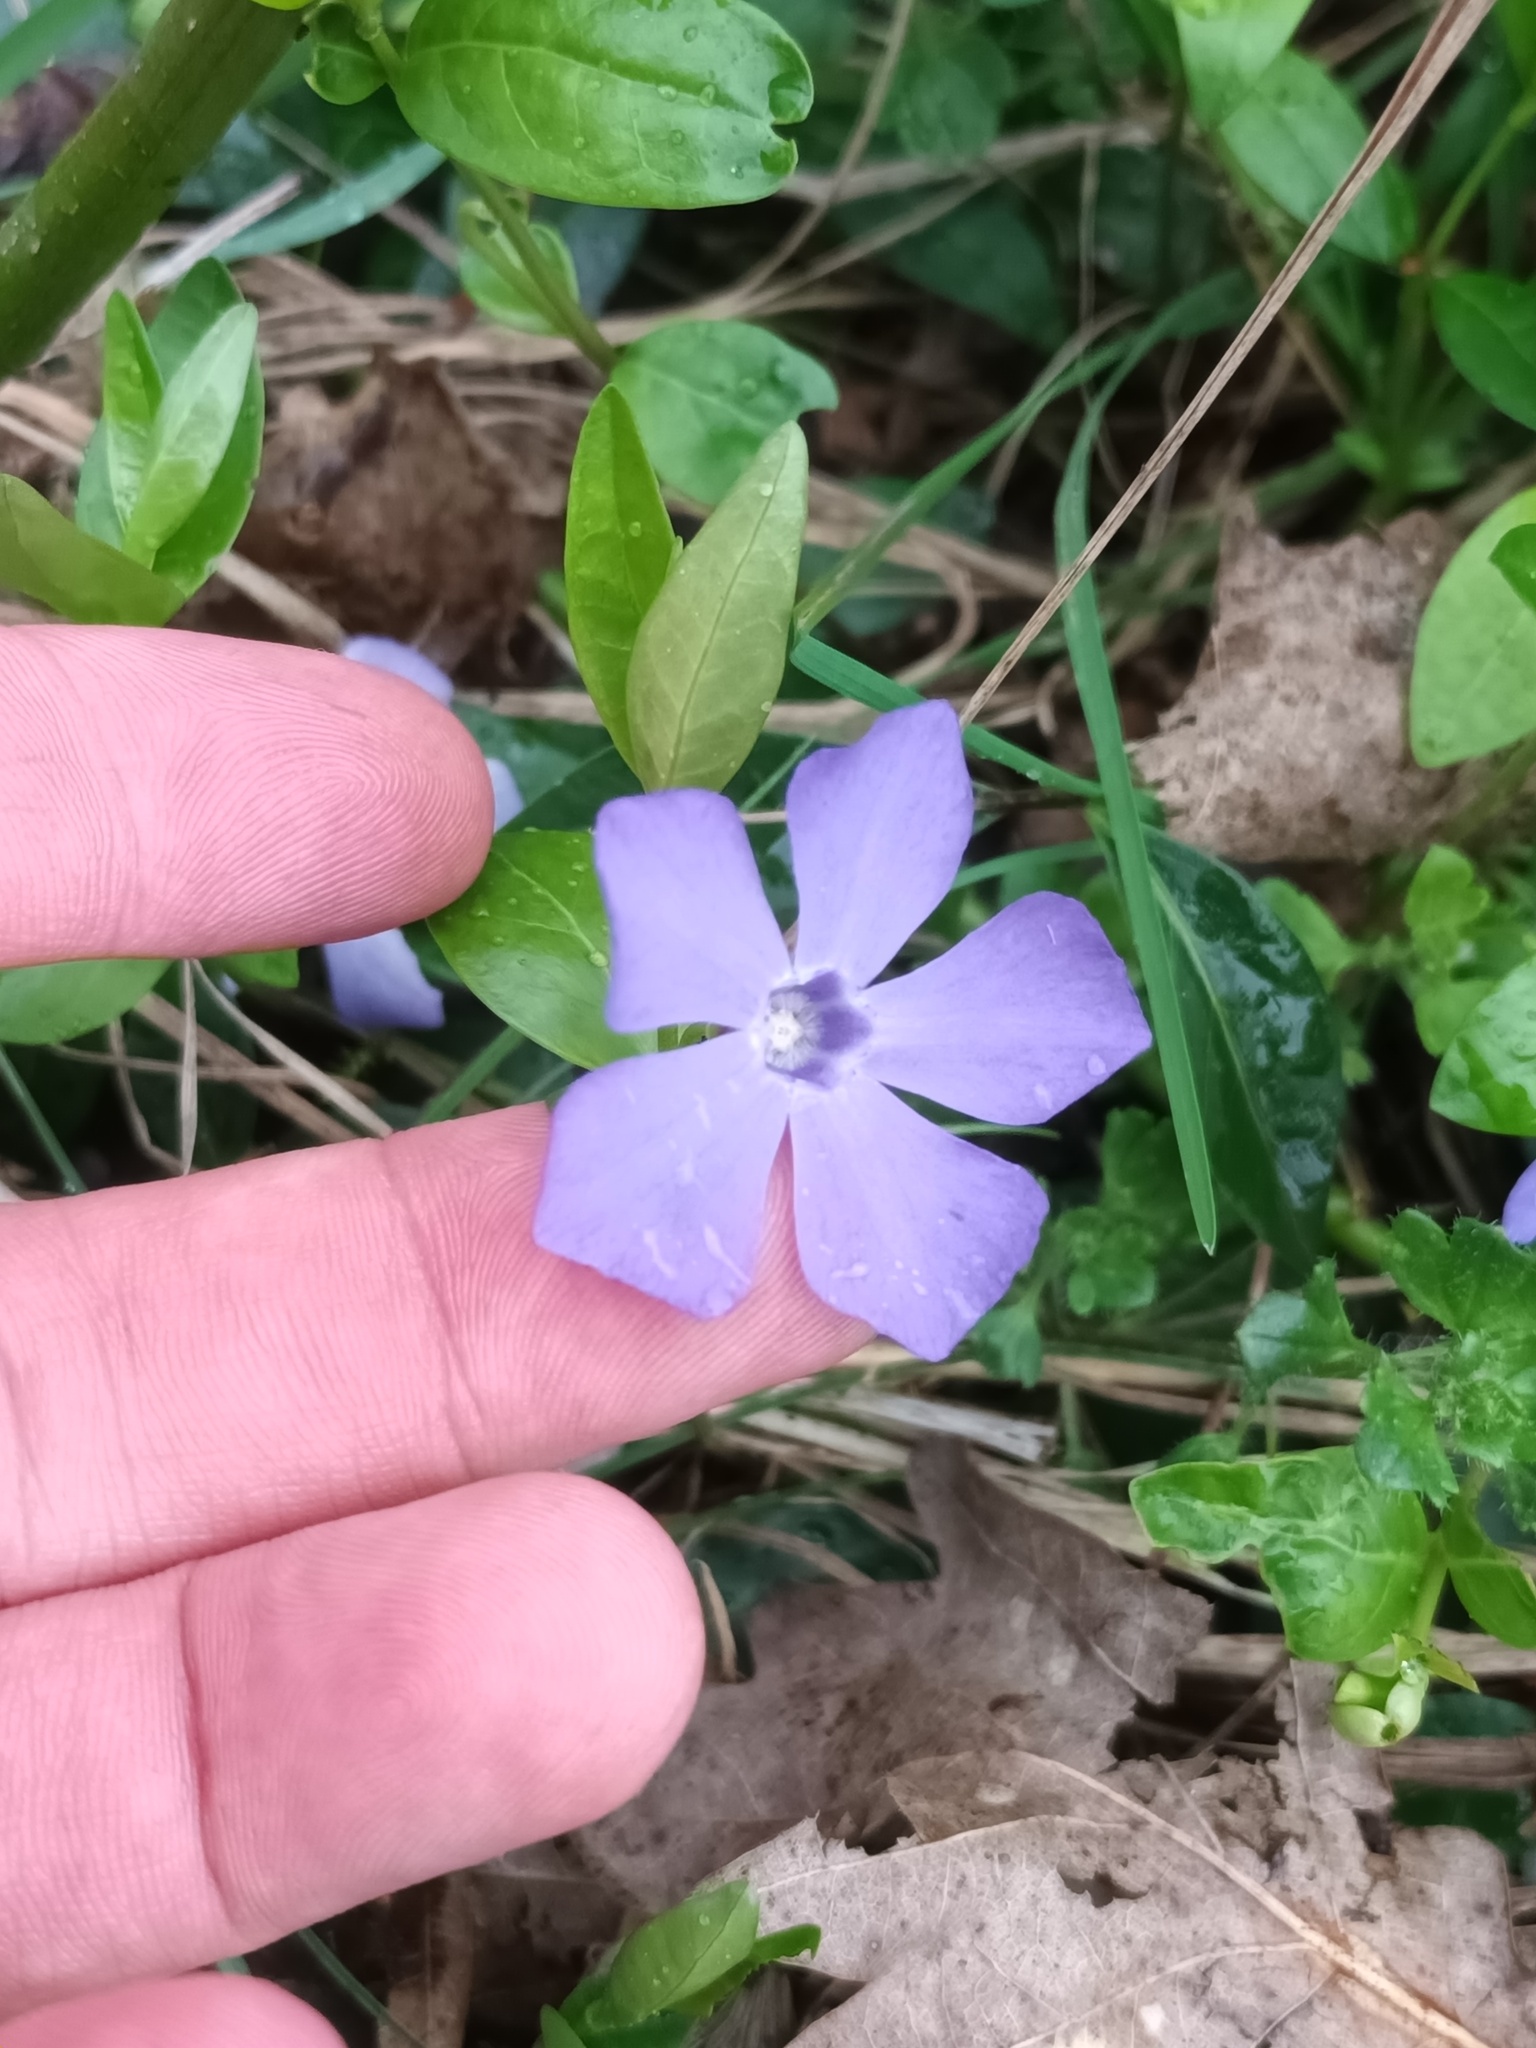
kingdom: Plantae
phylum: Tracheophyta
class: Magnoliopsida
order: Gentianales
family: Apocynaceae
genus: Vinca
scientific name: Vinca minor
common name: Lesser periwinkle
